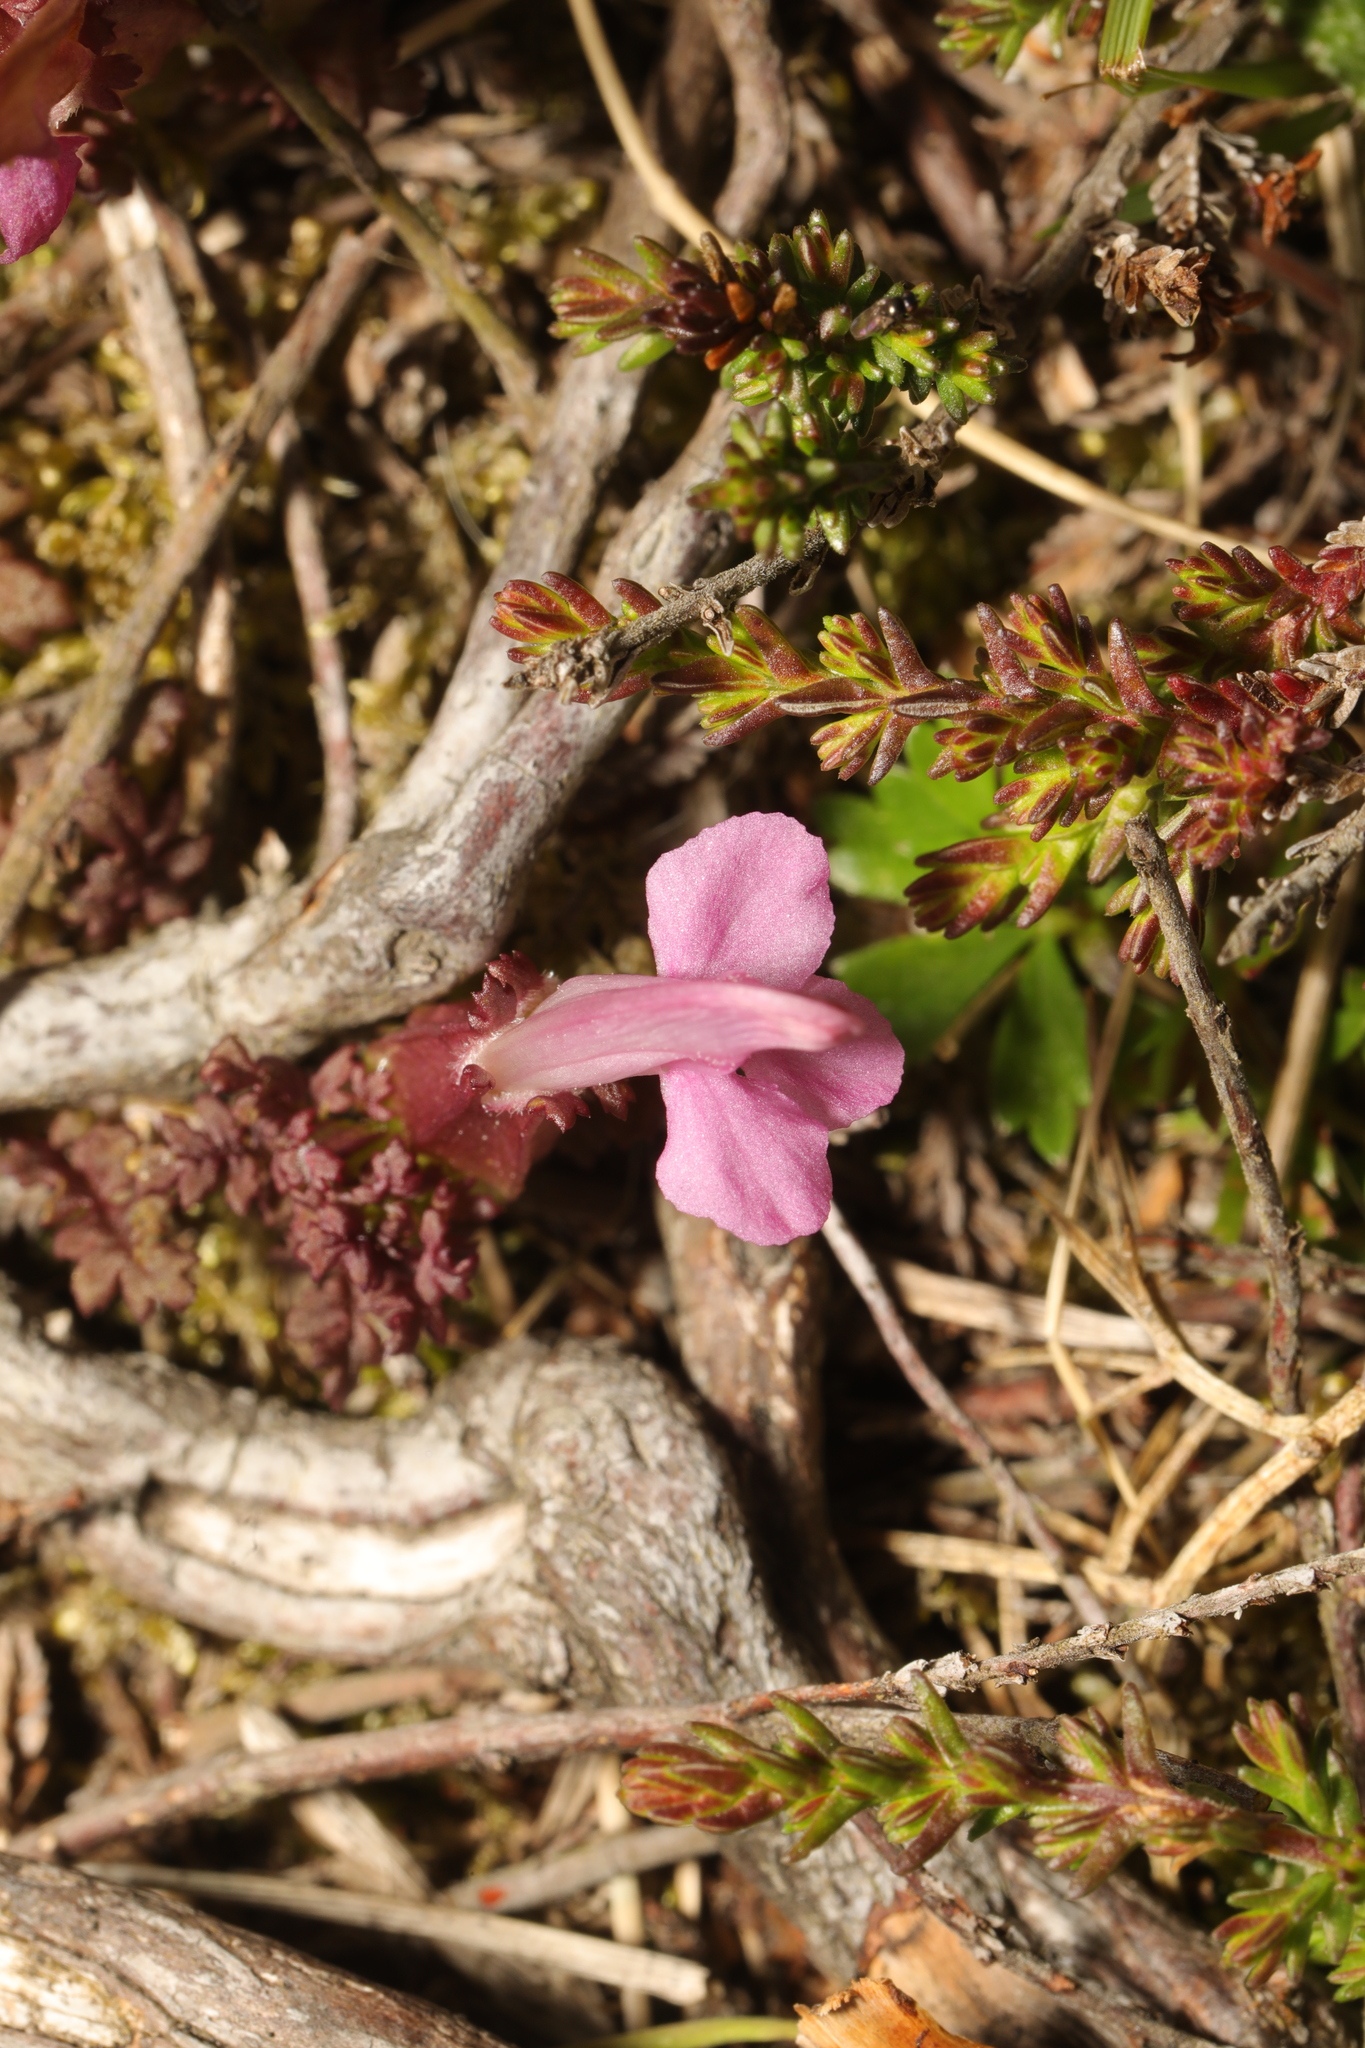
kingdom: Plantae
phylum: Tracheophyta
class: Magnoliopsida
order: Lamiales
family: Orobanchaceae
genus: Pedicularis
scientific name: Pedicularis sylvatica
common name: Lousewort
